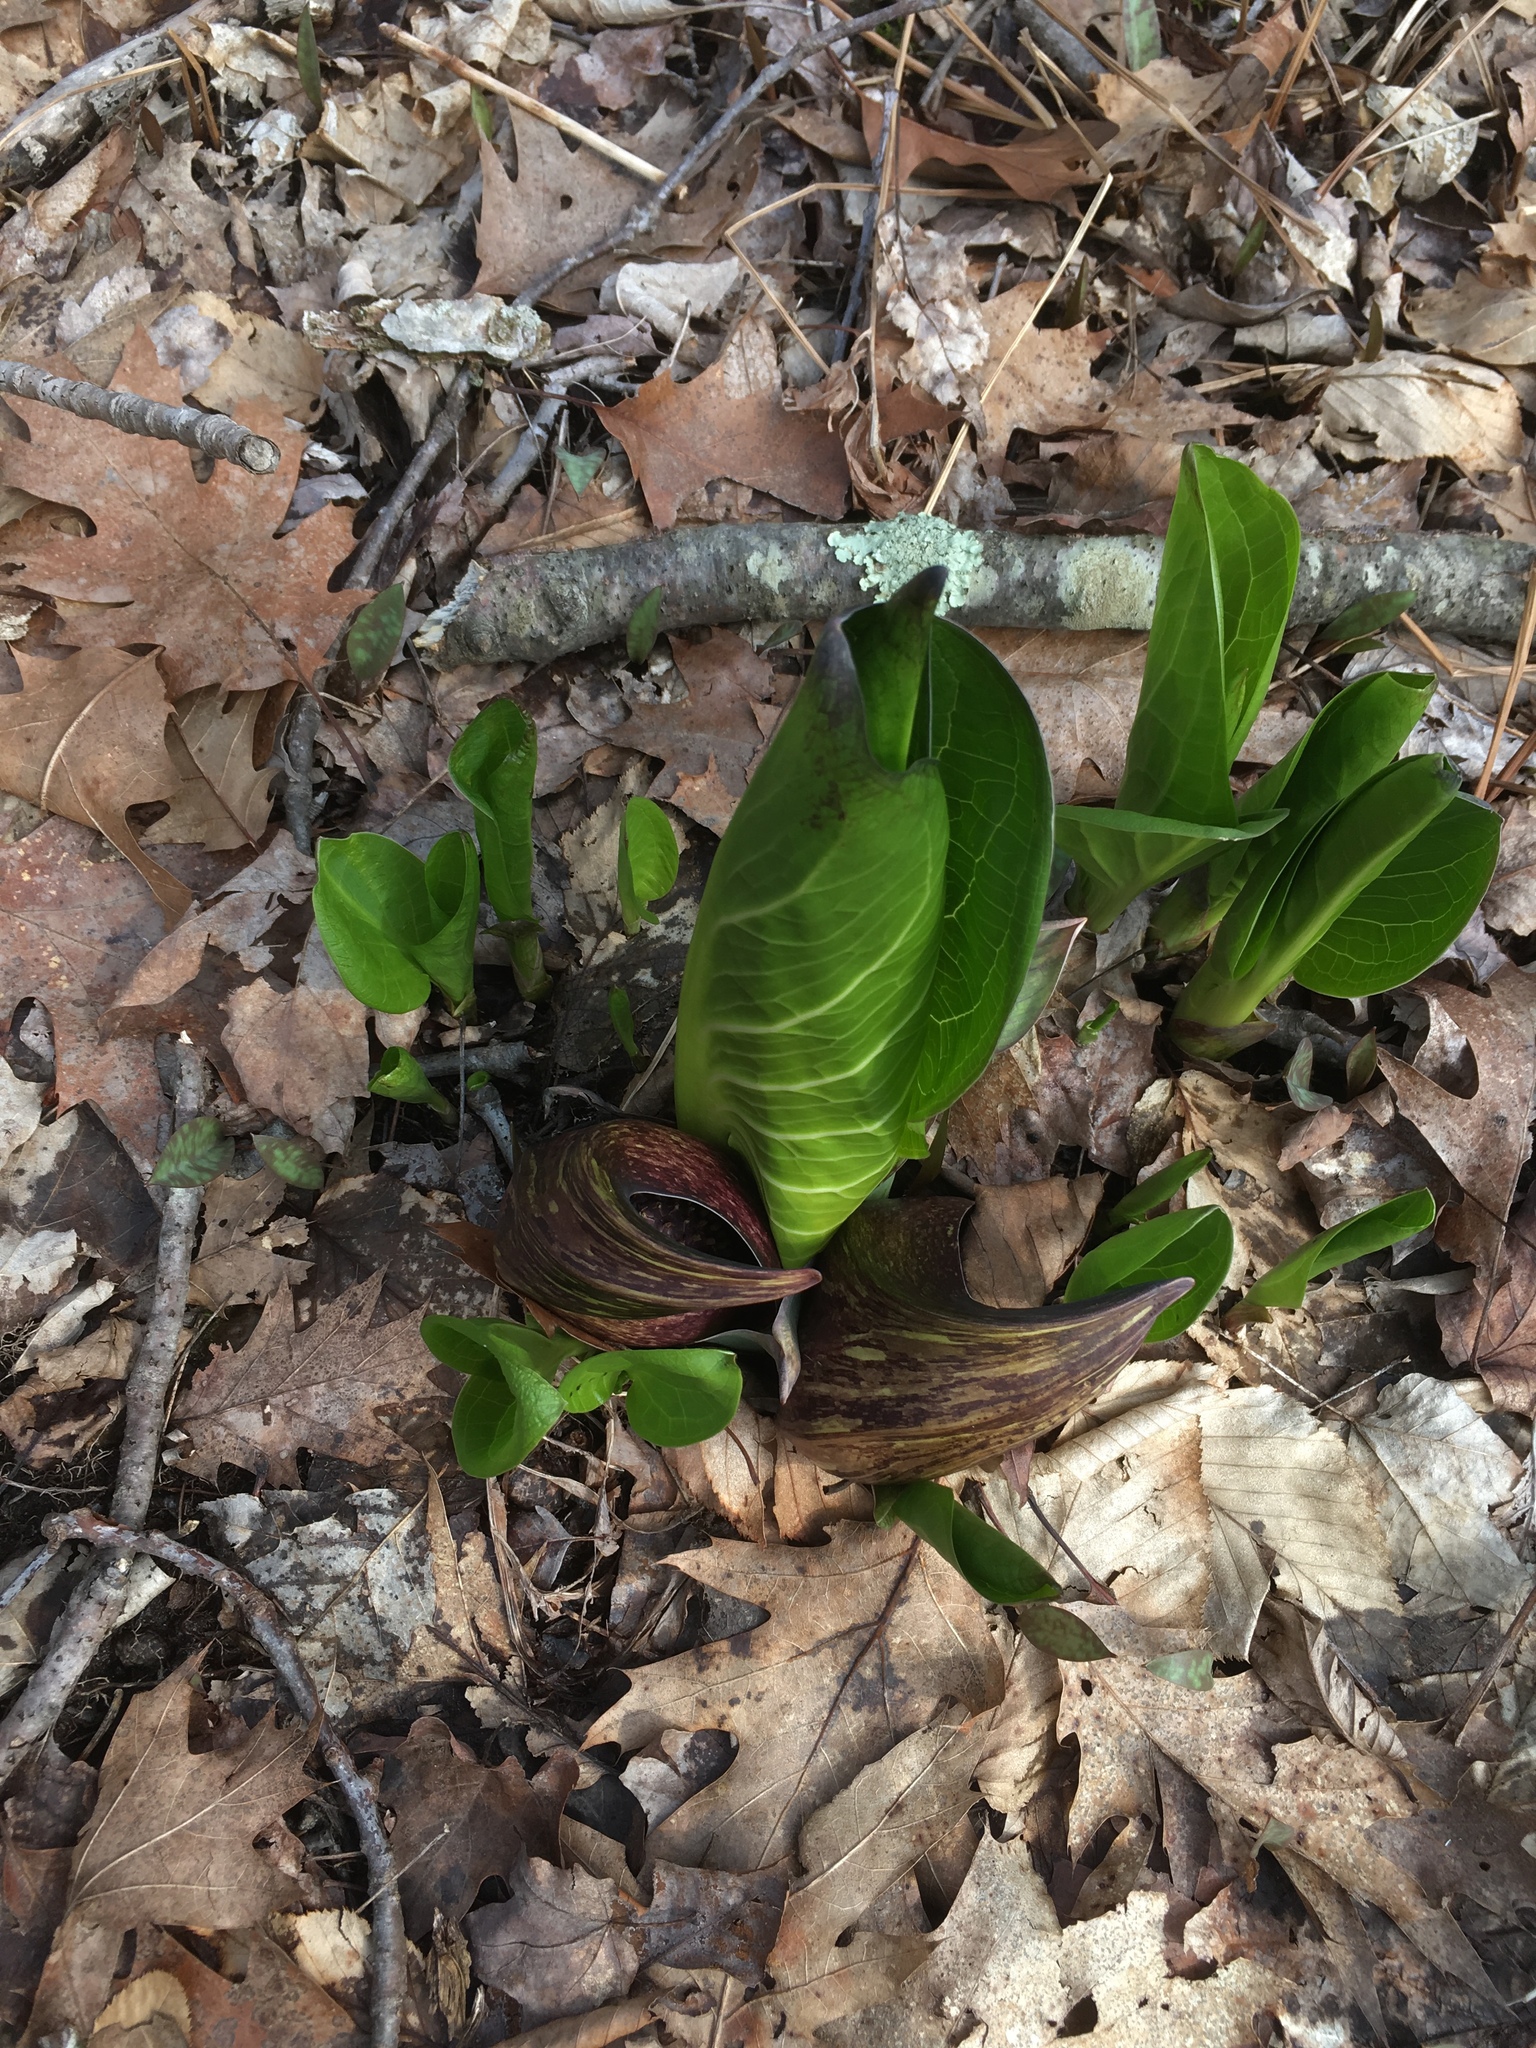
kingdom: Plantae
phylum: Tracheophyta
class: Liliopsida
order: Alismatales
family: Araceae
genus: Symplocarpus
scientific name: Symplocarpus foetidus
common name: Eastern skunk cabbage
